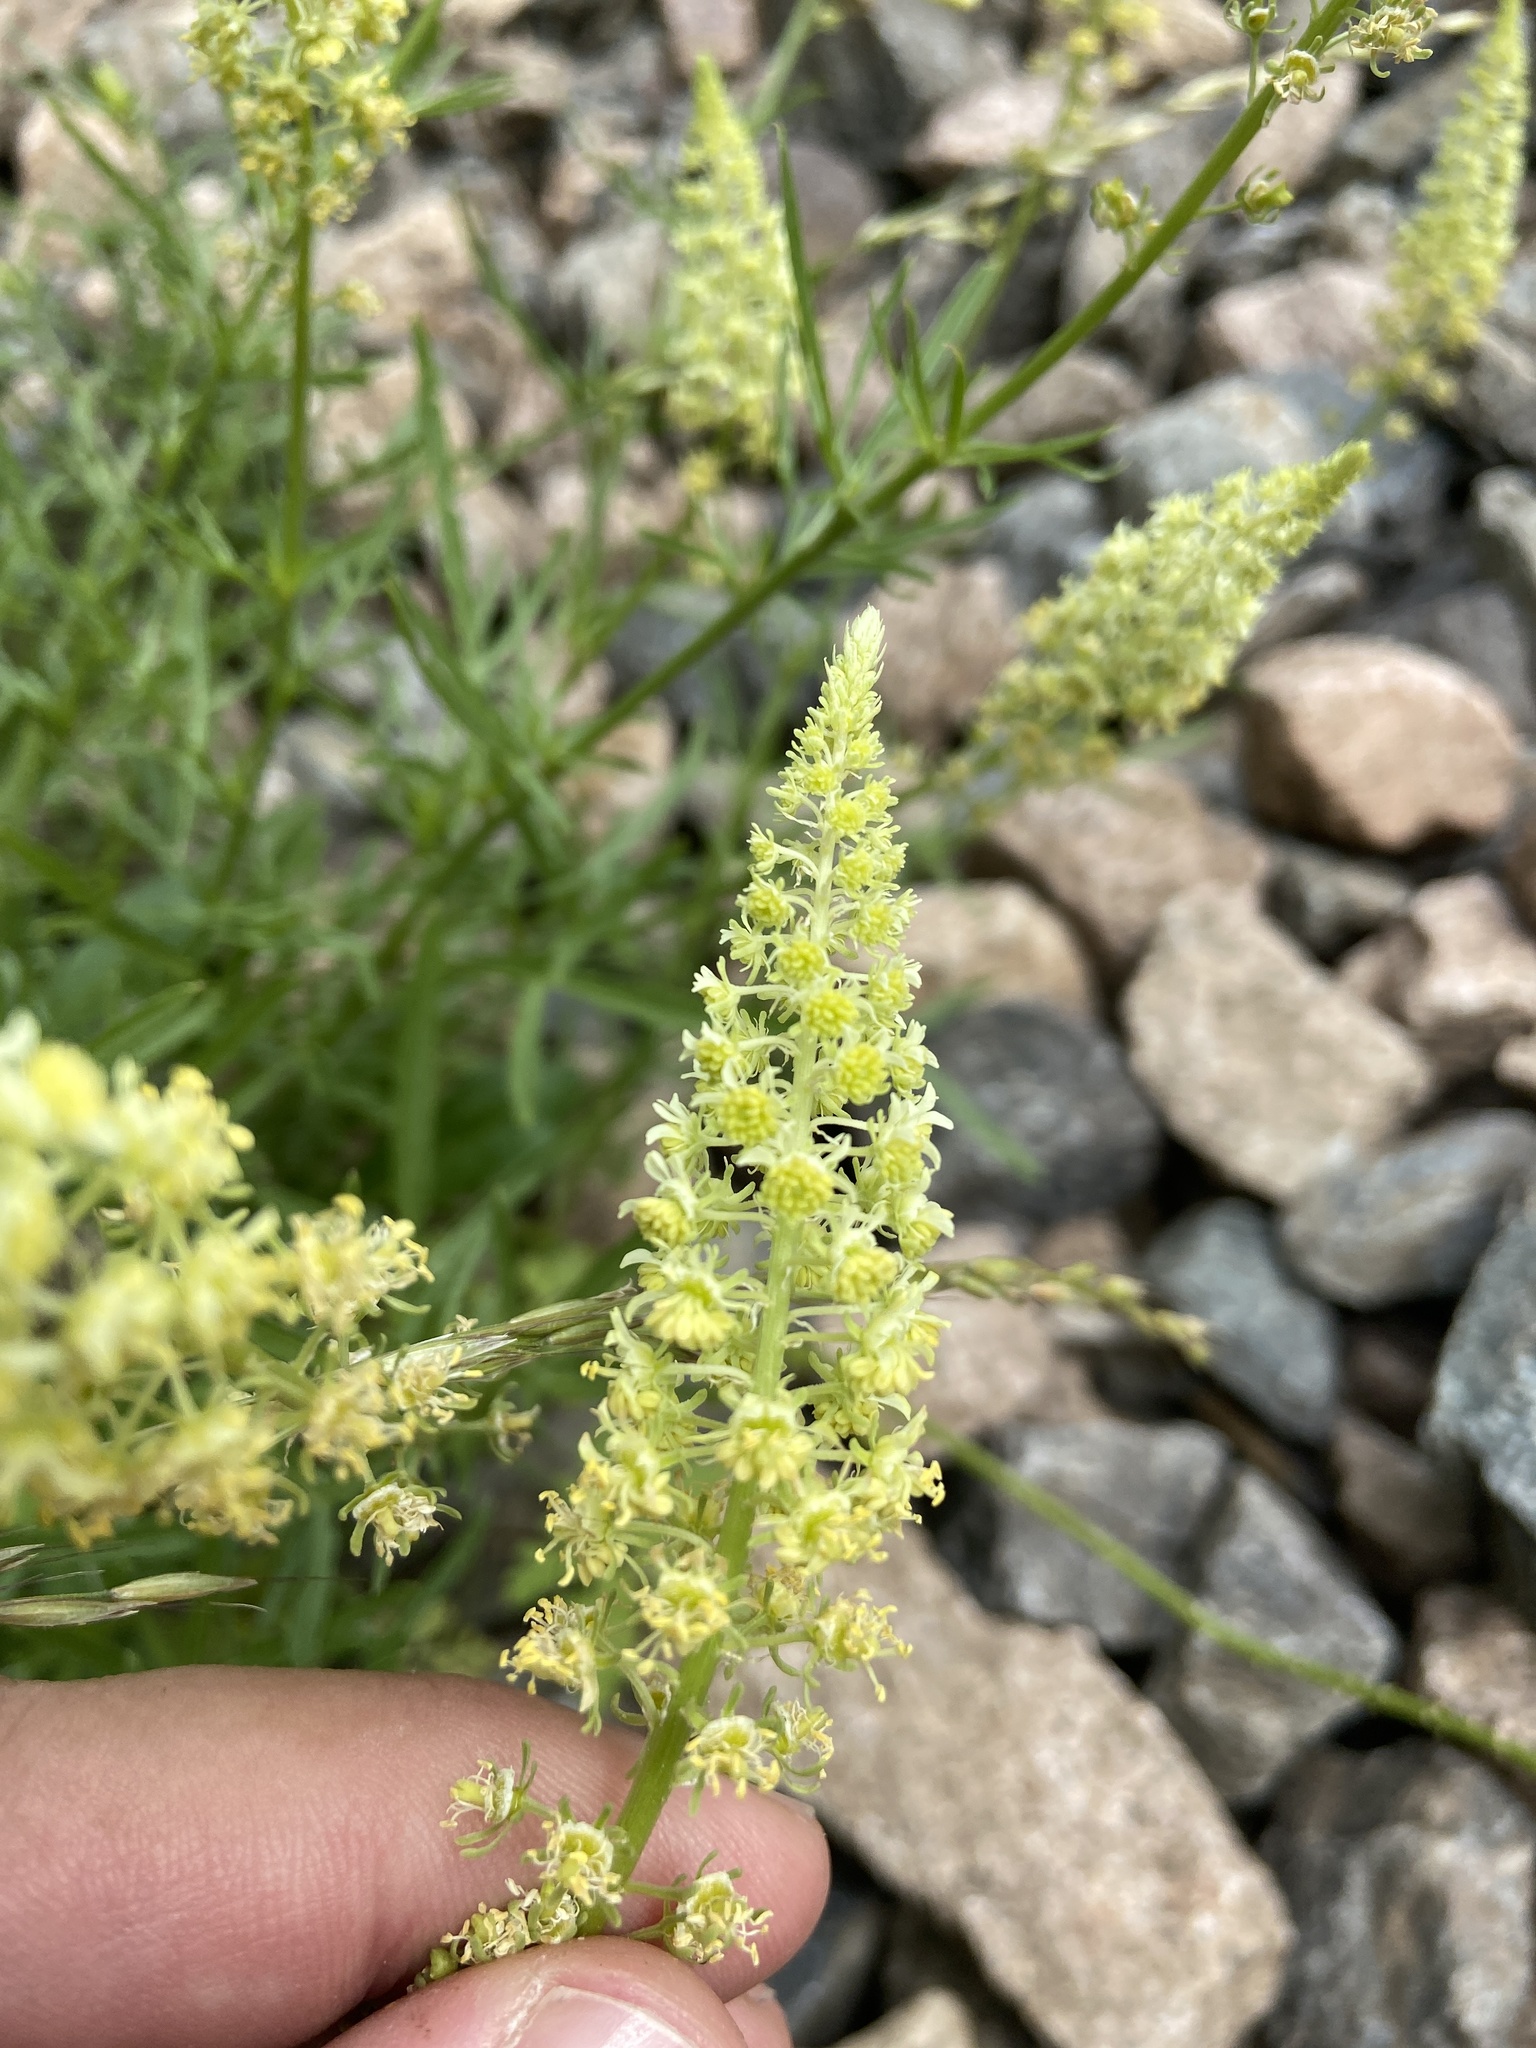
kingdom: Plantae
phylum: Tracheophyta
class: Magnoliopsida
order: Brassicales
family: Resedaceae
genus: Reseda
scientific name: Reseda lutea
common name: Wild mignonette
